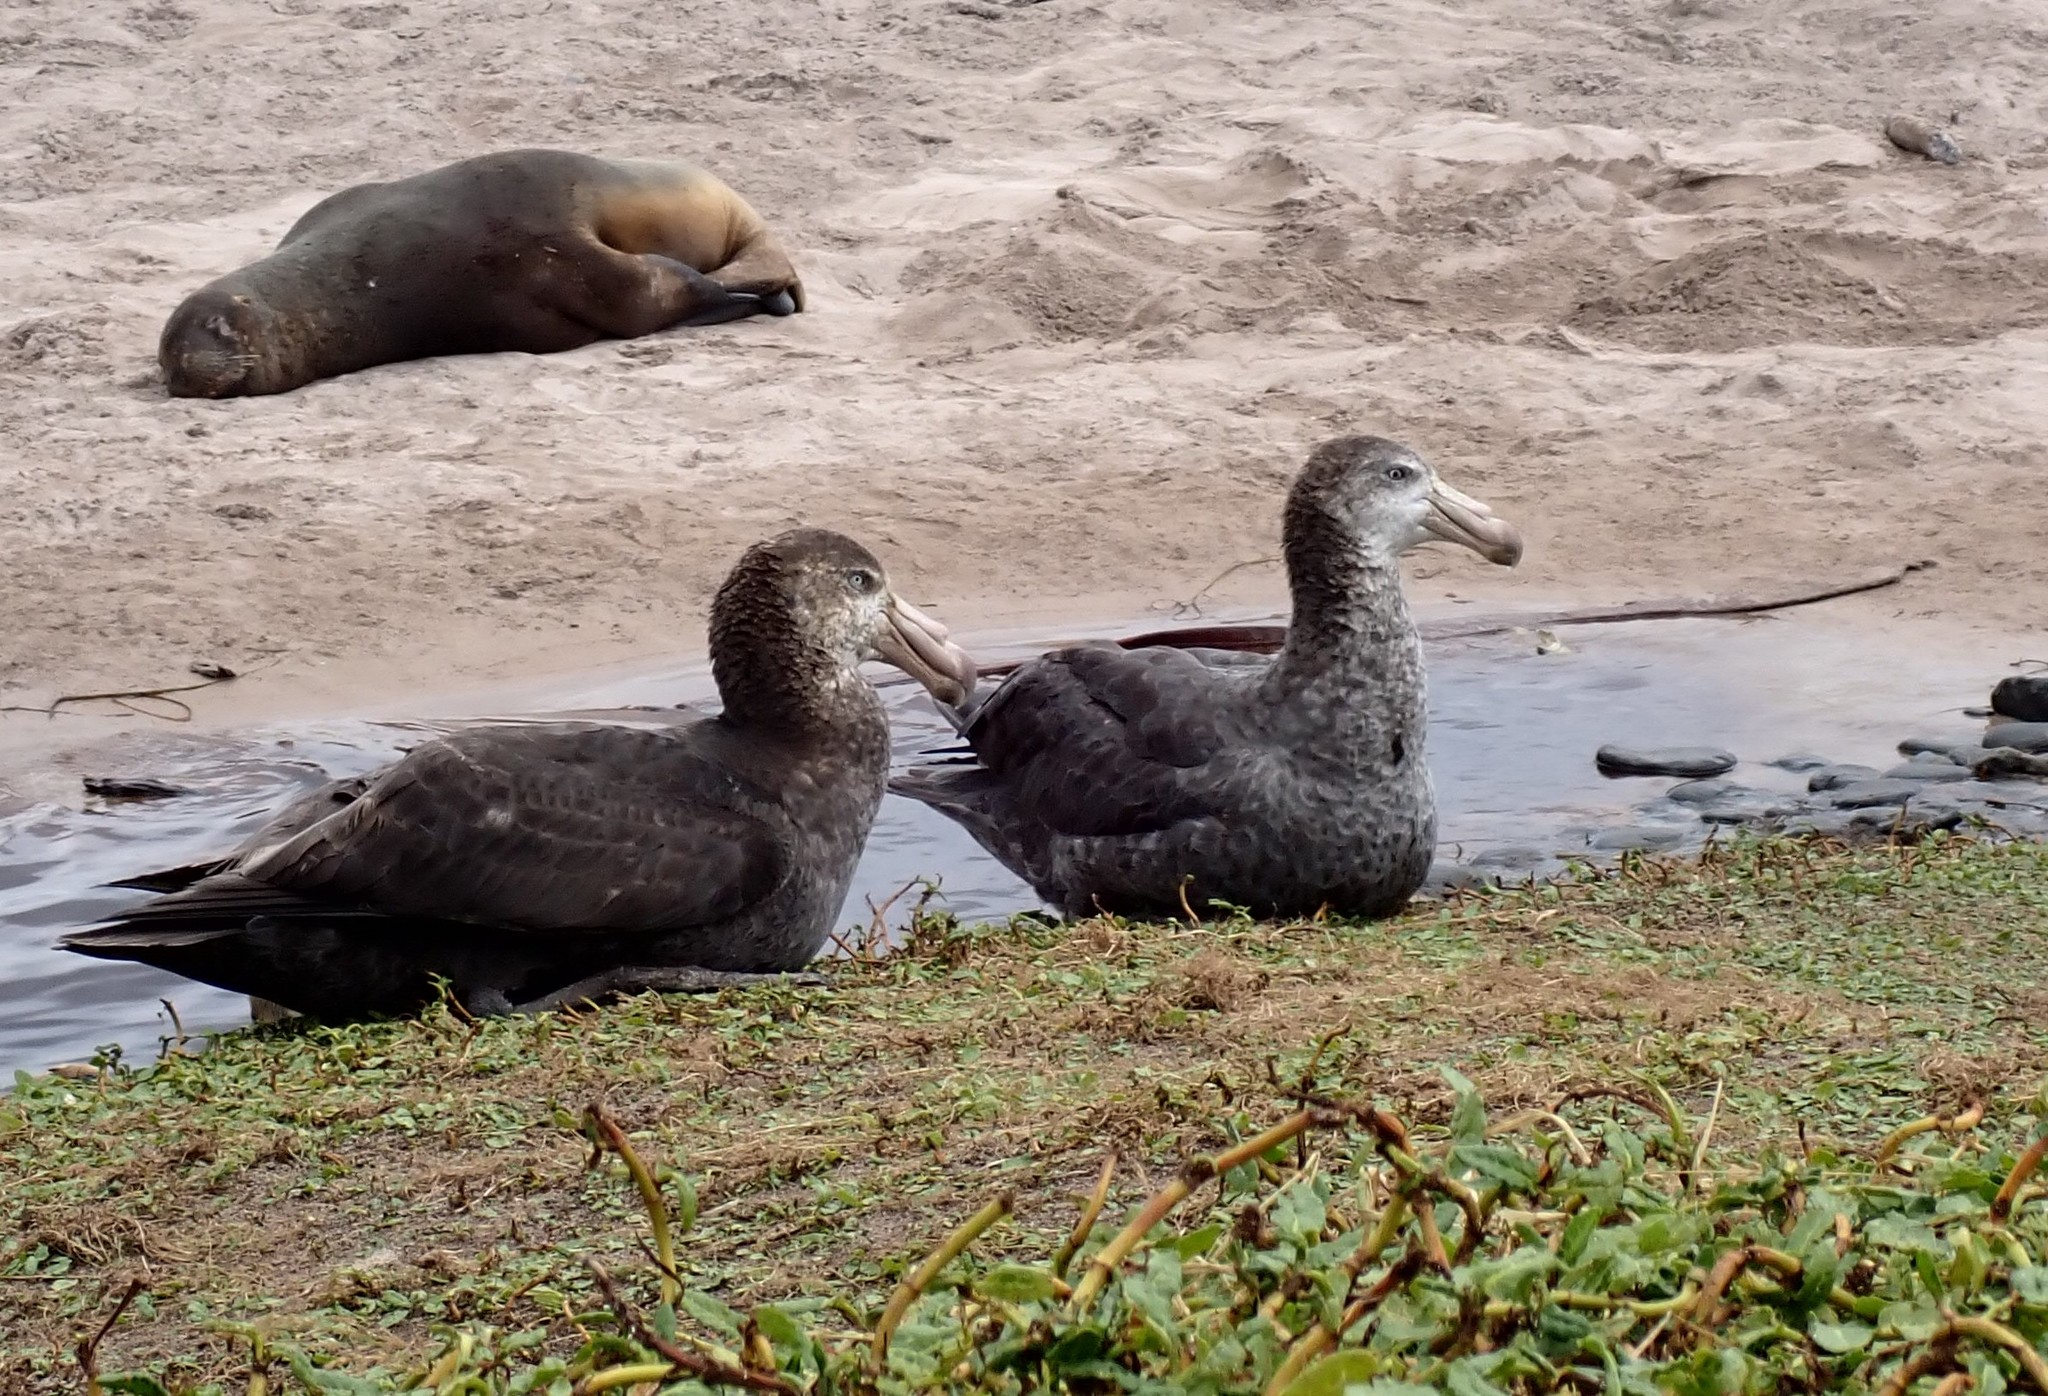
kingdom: Animalia
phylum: Chordata
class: Aves
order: Procellariiformes
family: Procellariidae
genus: Macronectes
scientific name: Macronectes halli
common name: Northern giant petrel
